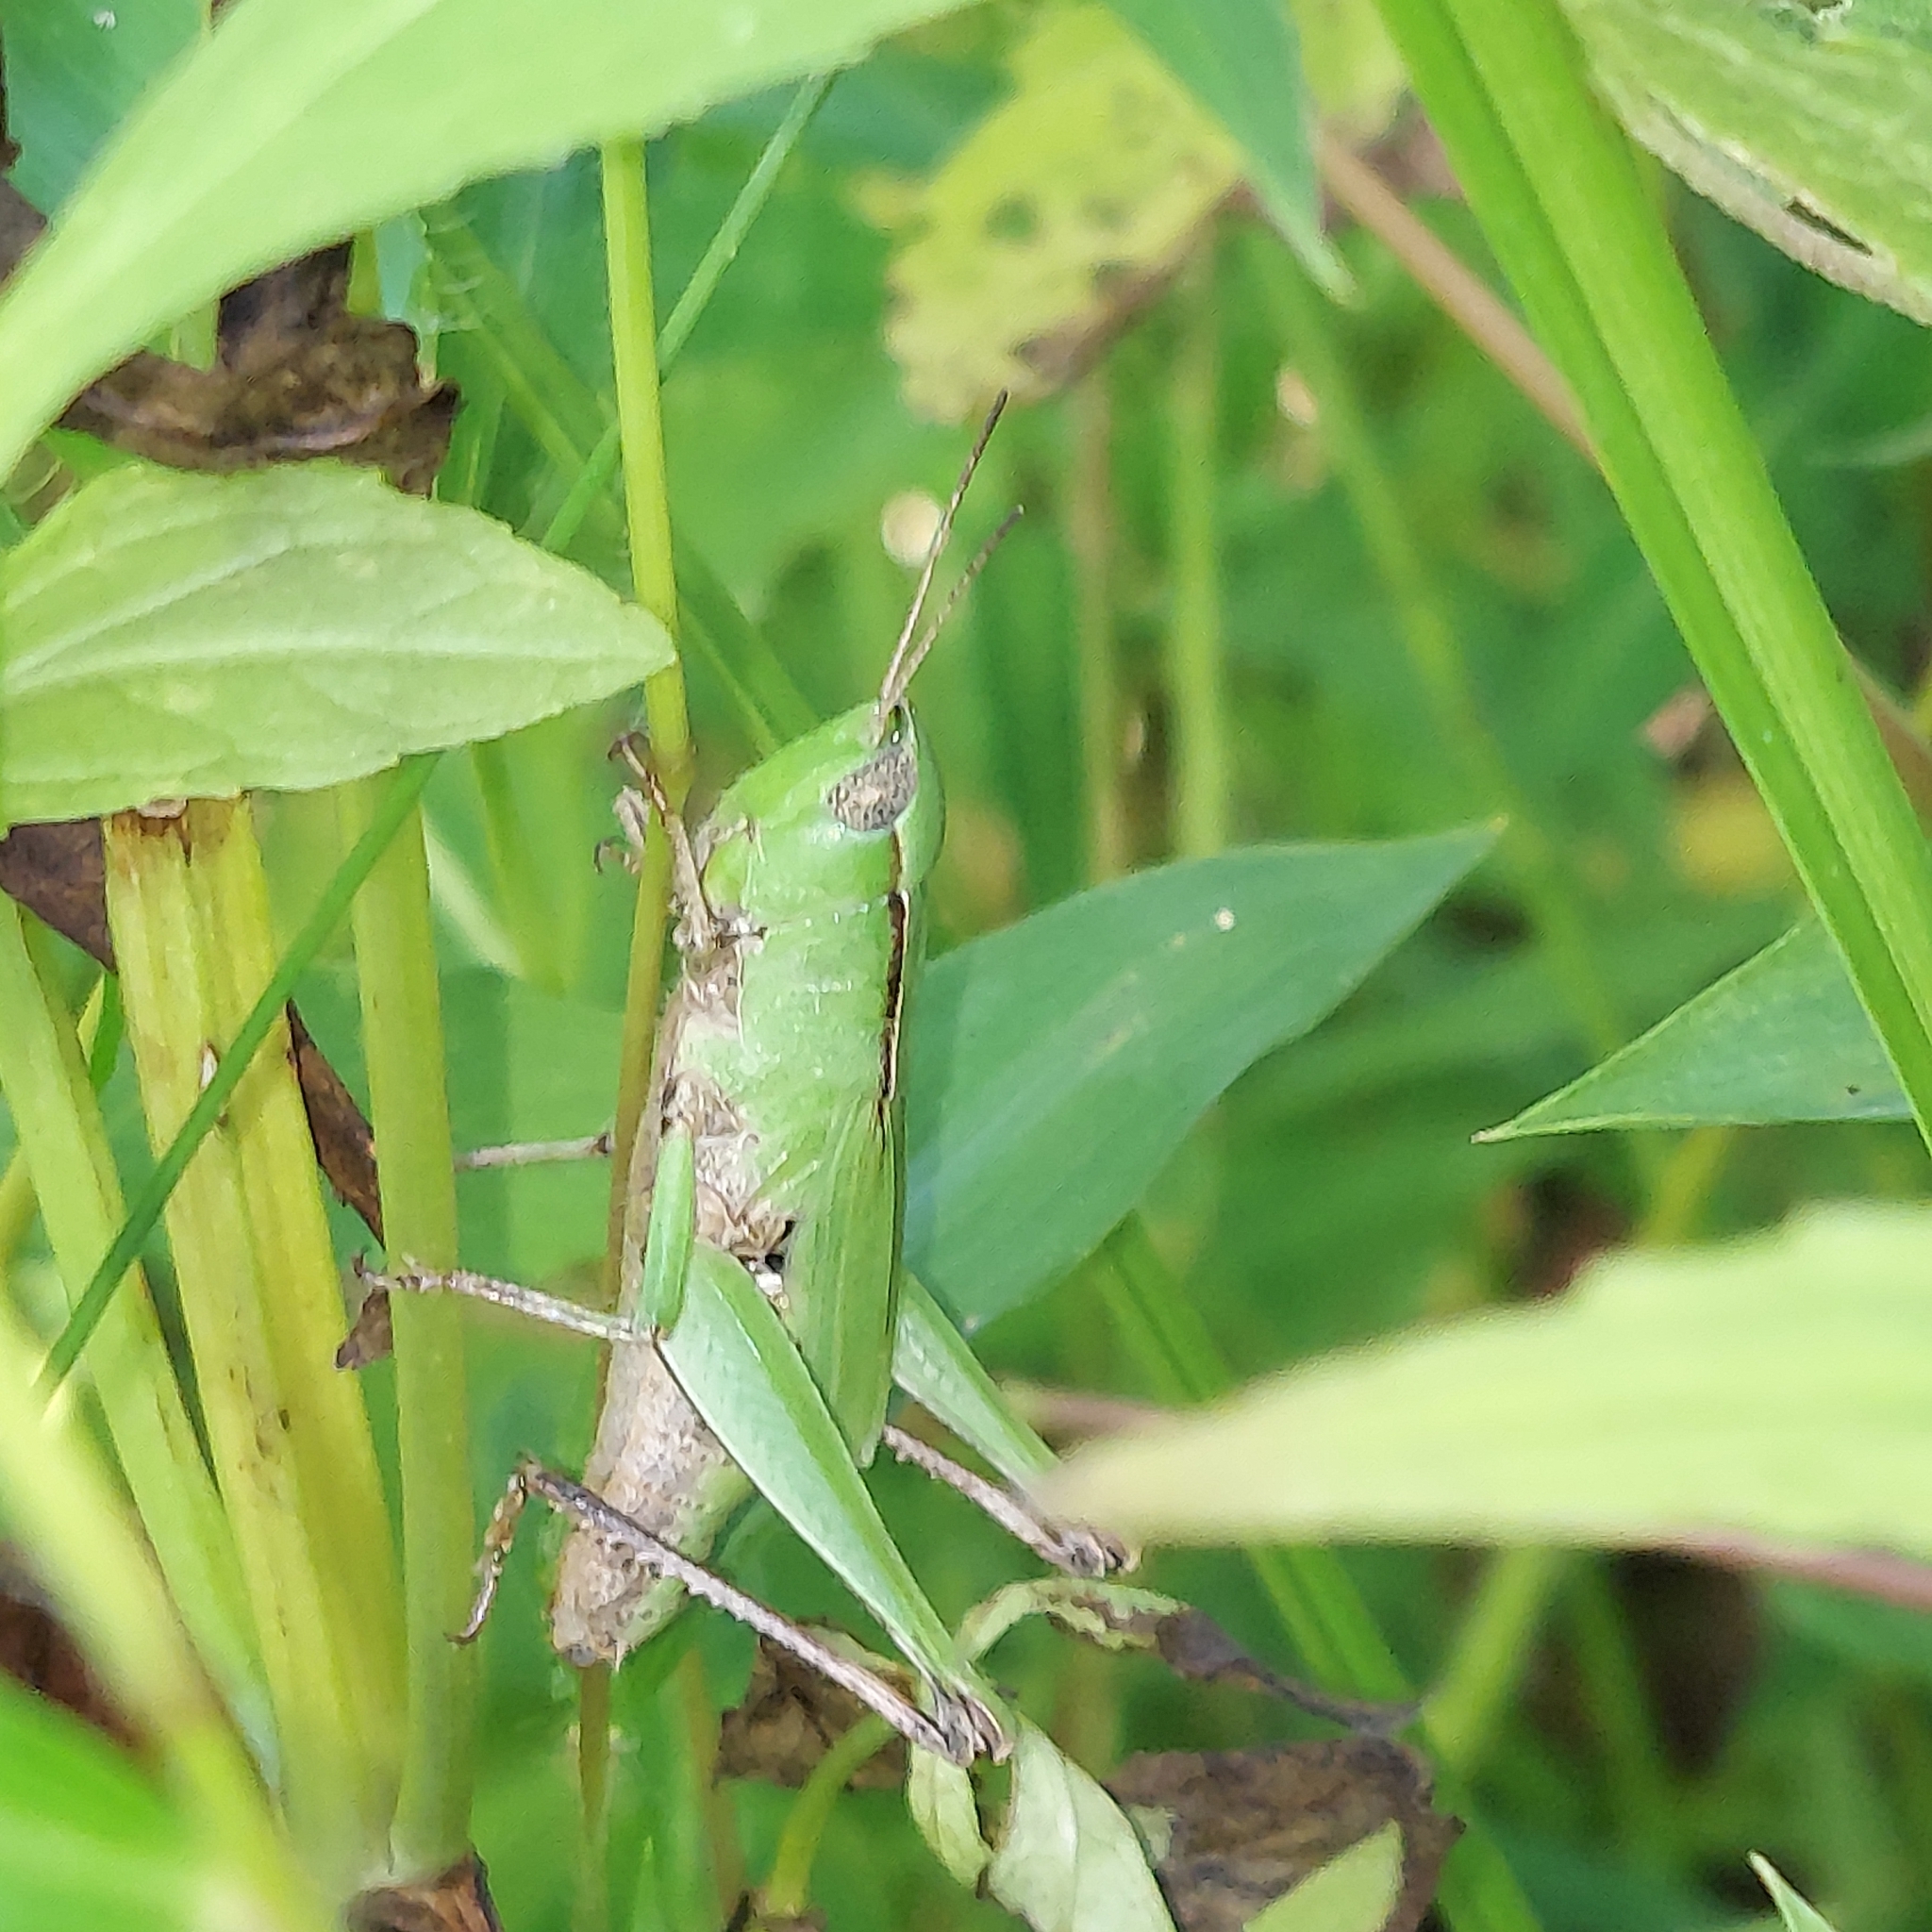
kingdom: Animalia
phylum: Arthropoda
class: Insecta
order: Orthoptera
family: Acrididae
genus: Dichromorpha
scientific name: Dichromorpha viridis
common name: Short-winged green grasshopper
